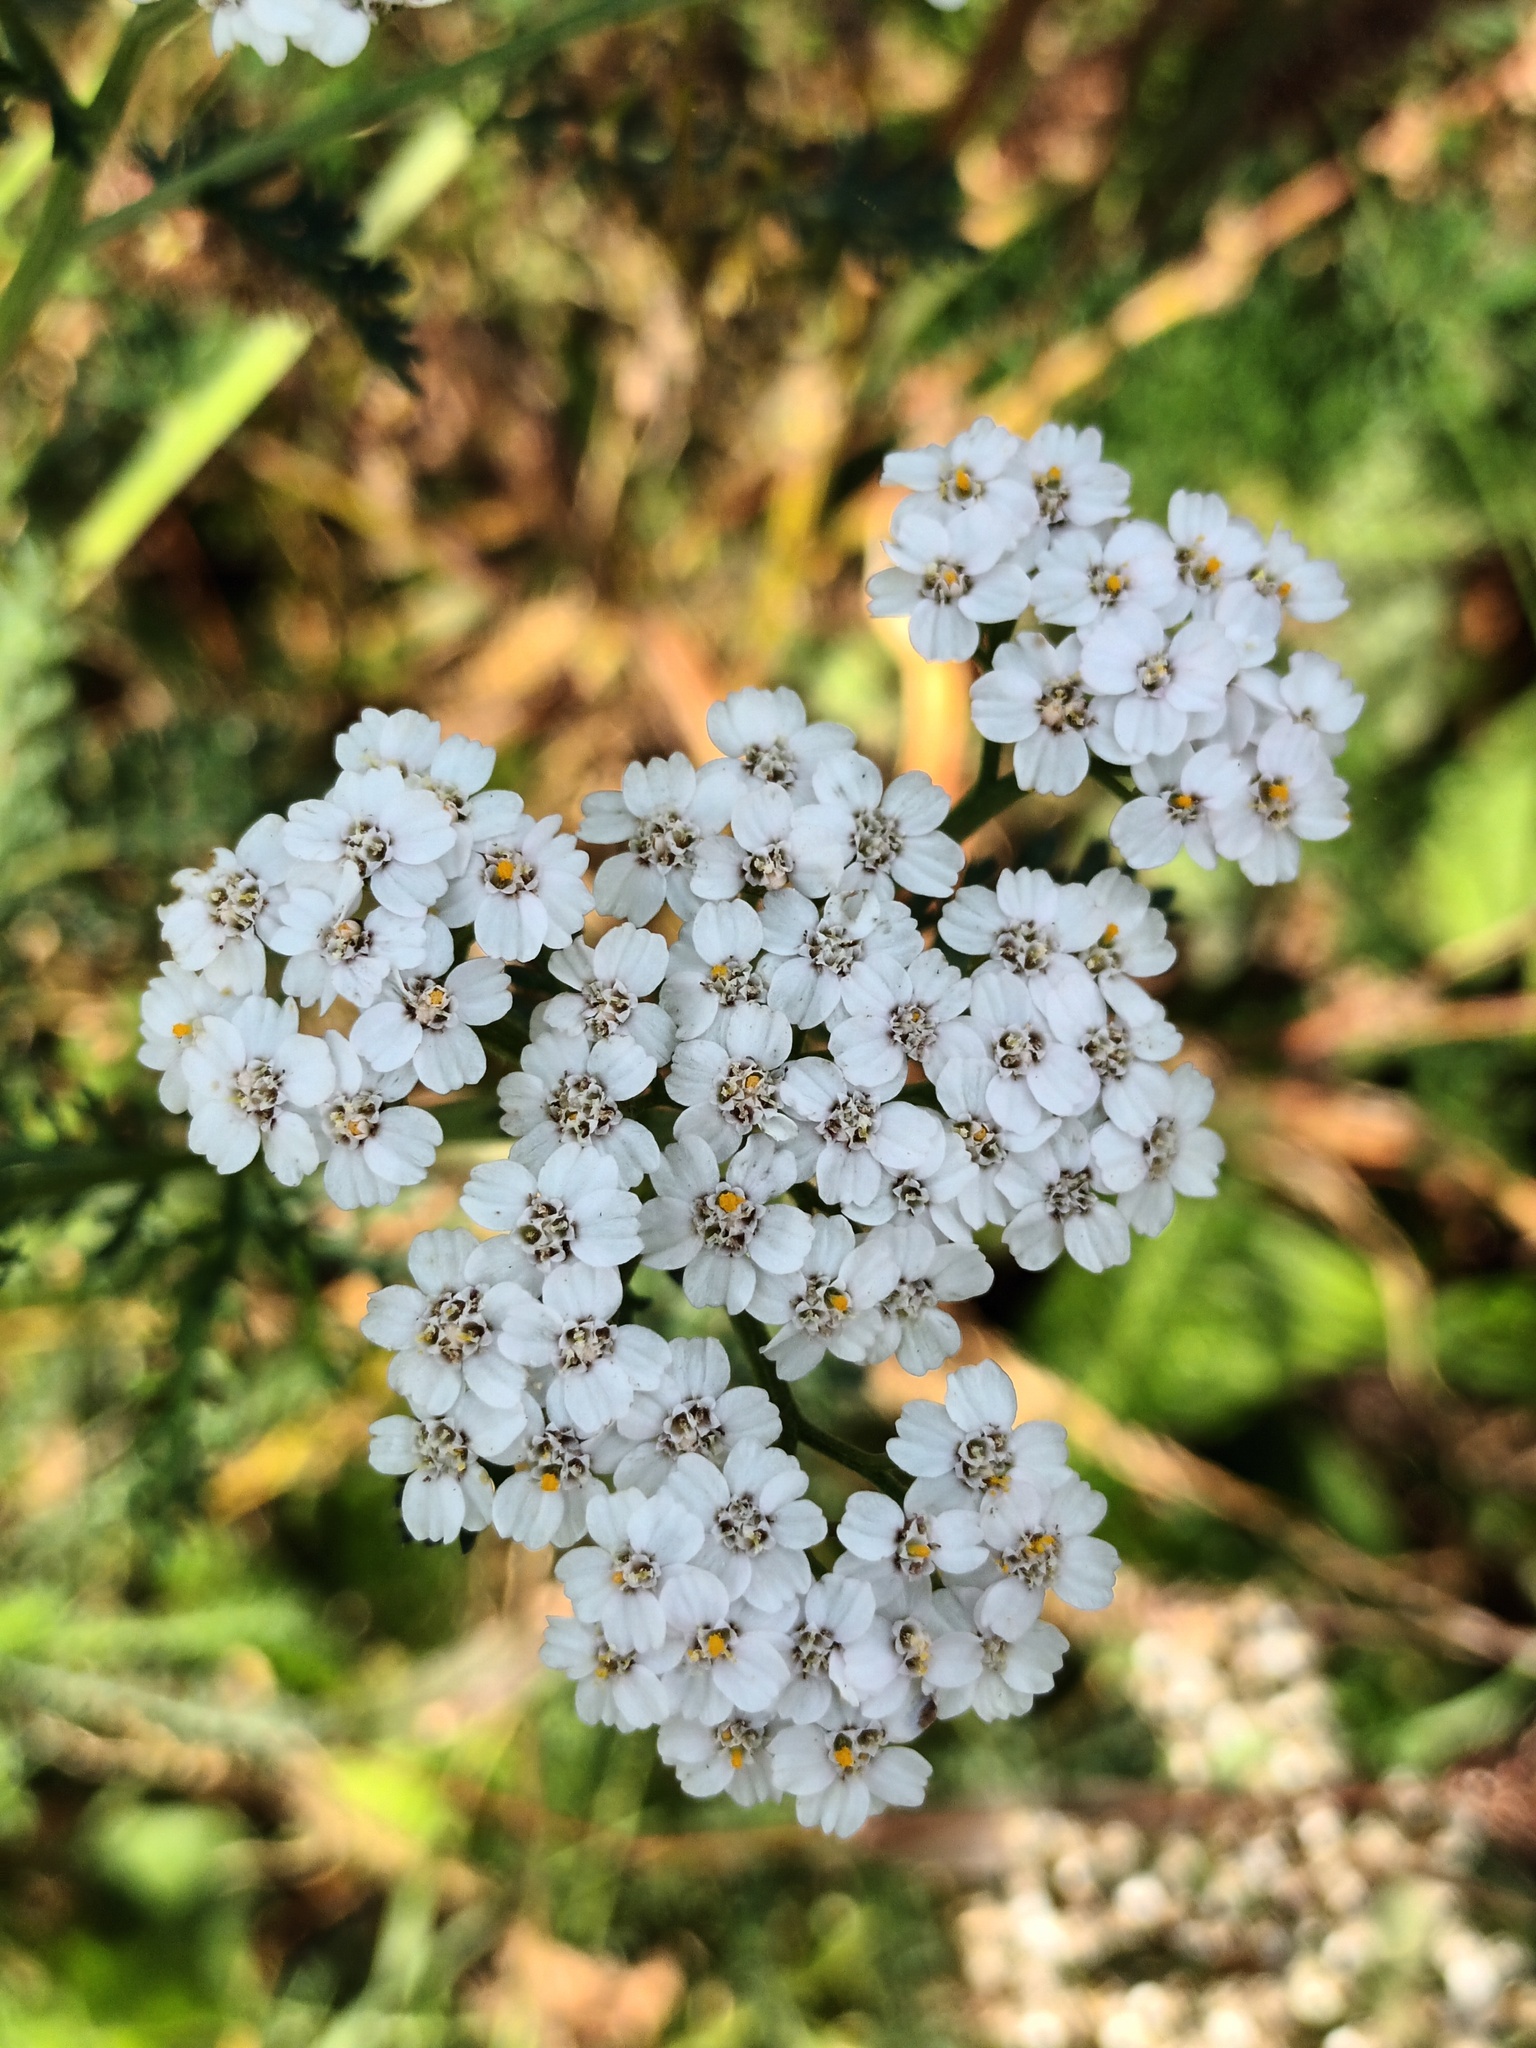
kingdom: Plantae
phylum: Tracheophyta
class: Magnoliopsida
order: Asterales
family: Asteraceae
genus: Achillea
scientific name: Achillea millefolium
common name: Yarrow
